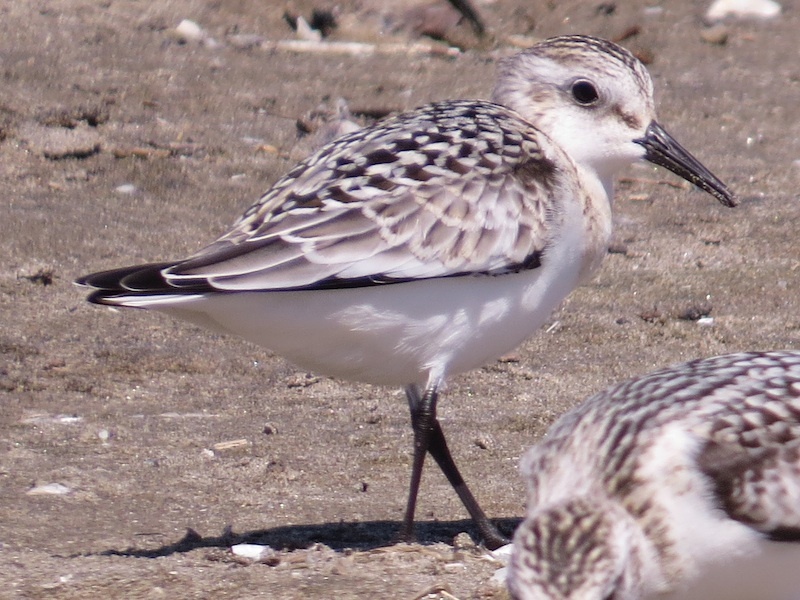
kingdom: Animalia
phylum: Chordata
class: Aves
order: Charadriiformes
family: Scolopacidae
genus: Calidris
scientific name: Calidris alba
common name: Sanderling
